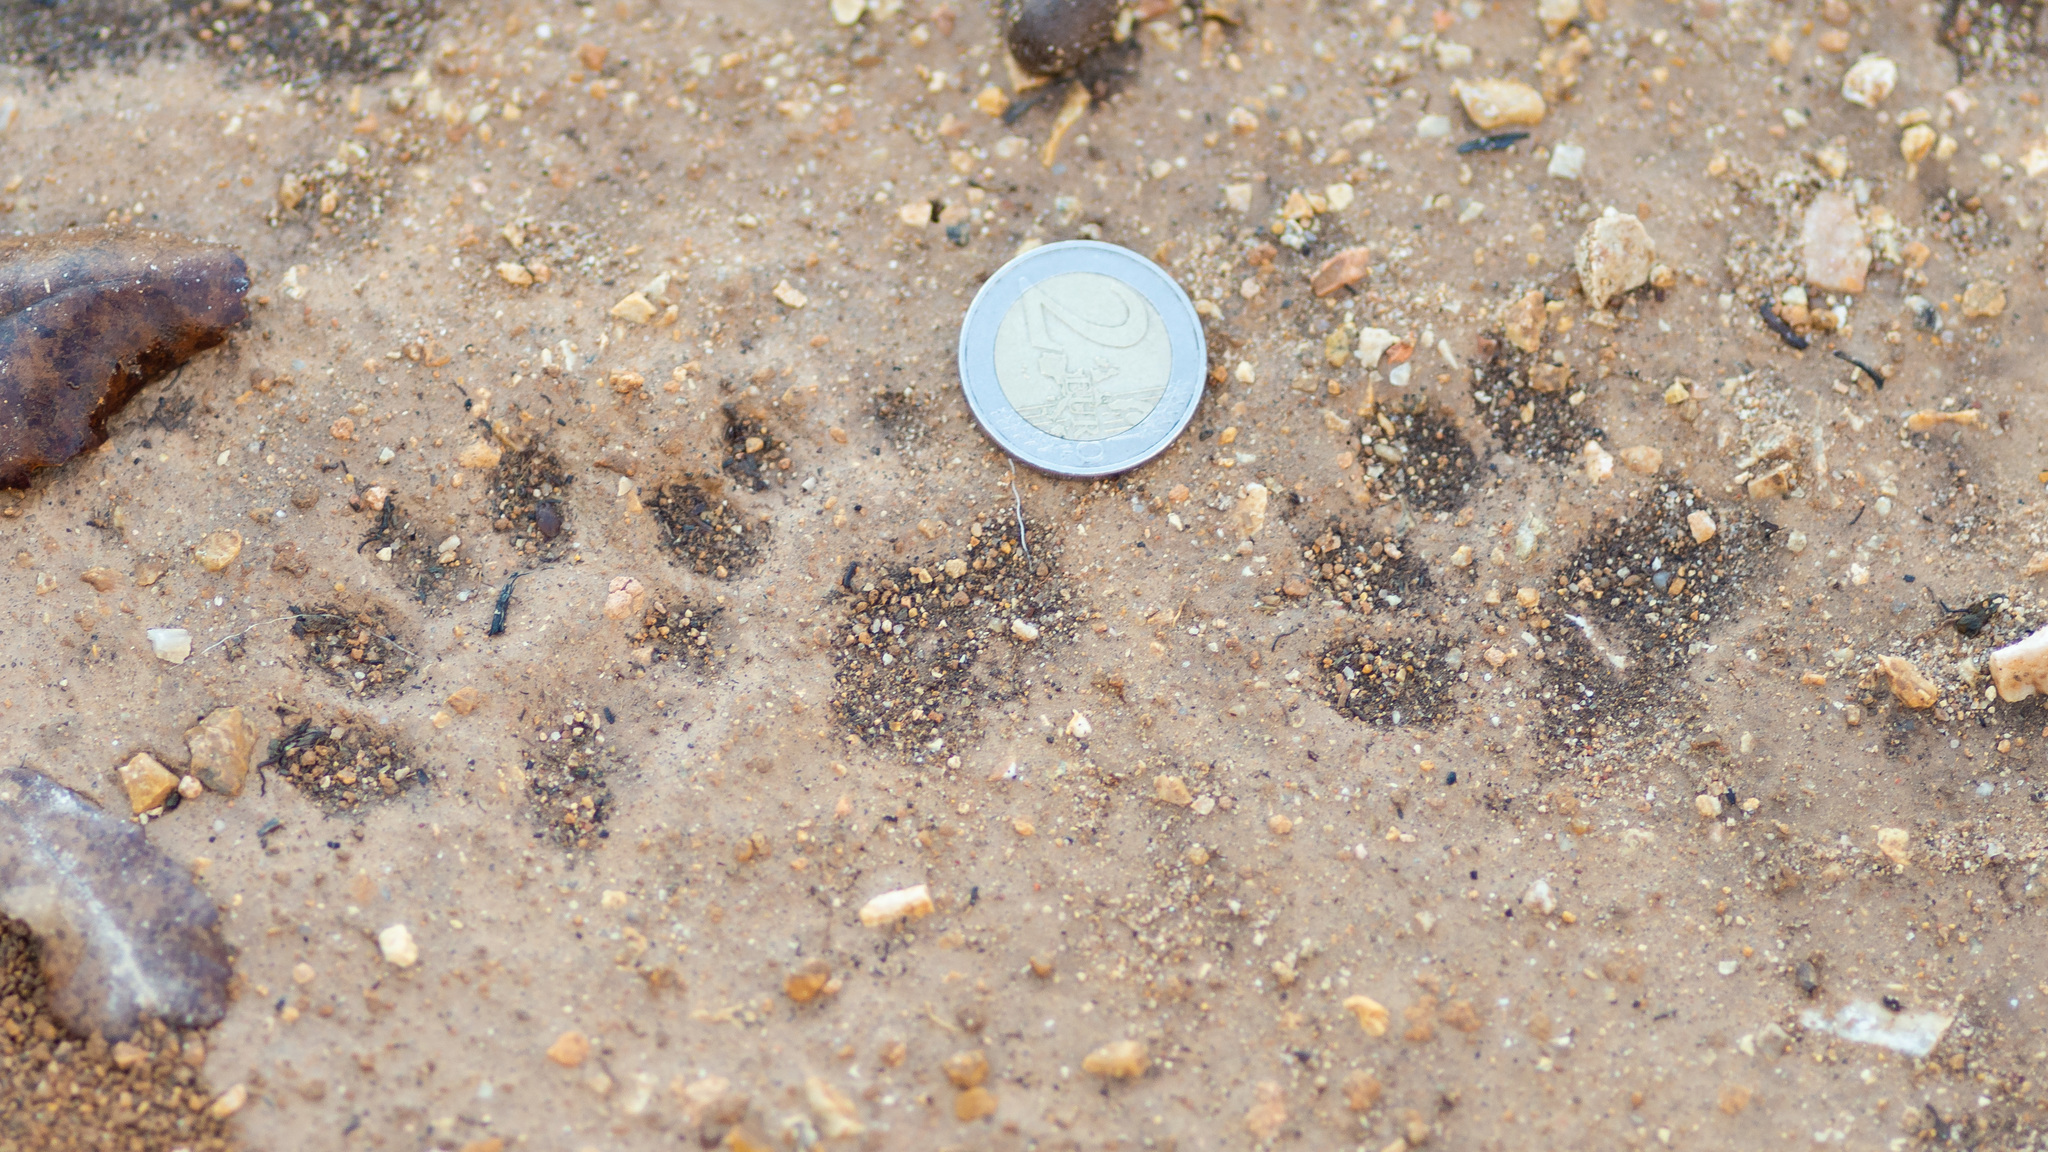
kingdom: Animalia
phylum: Chordata
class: Mammalia
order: Carnivora
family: Mustelidae
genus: Meles
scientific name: Meles meles
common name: Eurasian badger
